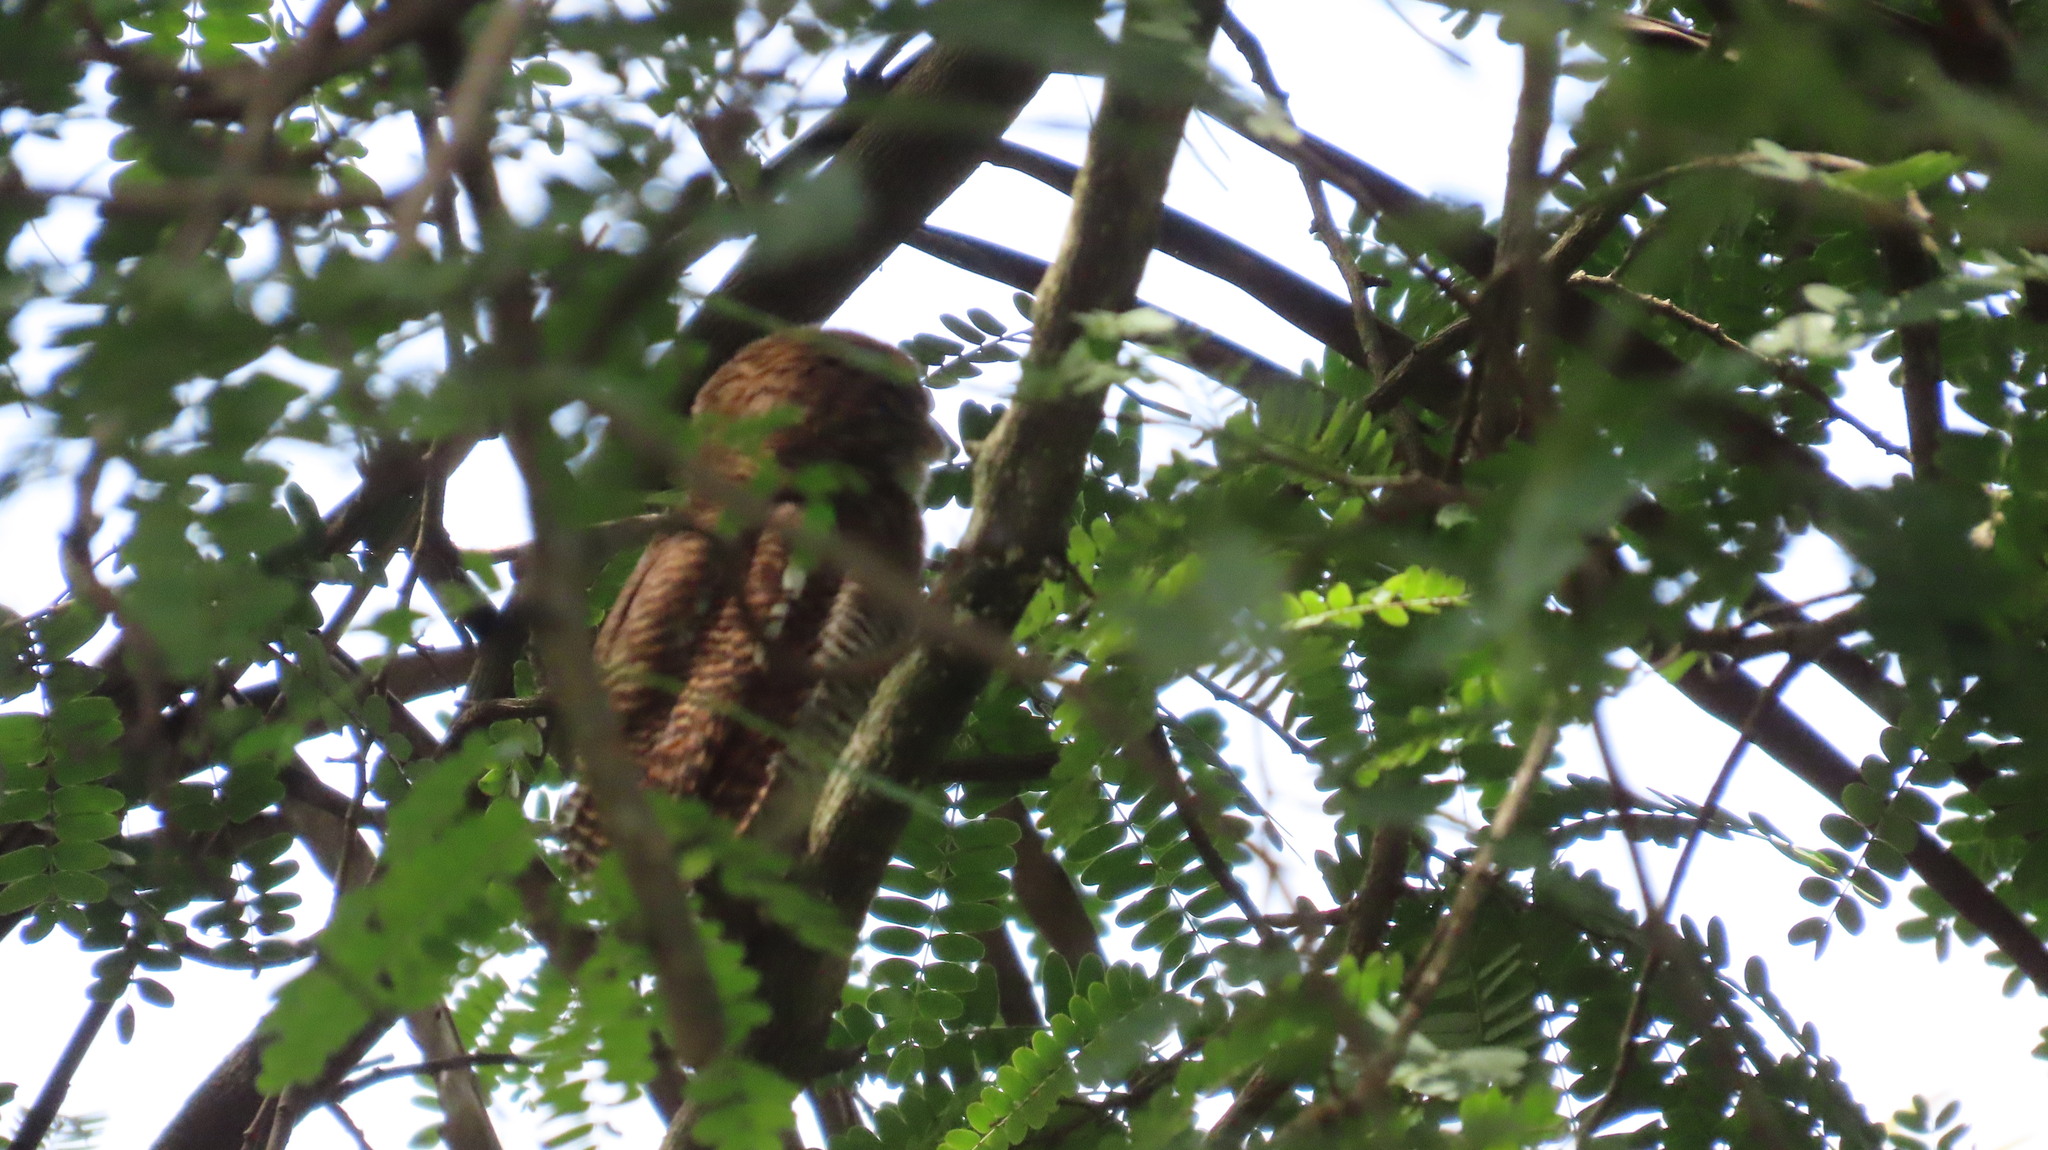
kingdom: Animalia
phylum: Chordata
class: Aves
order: Strigiformes
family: Strigidae
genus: Glaucidium
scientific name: Glaucidium radiatum
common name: Jungle owlet
